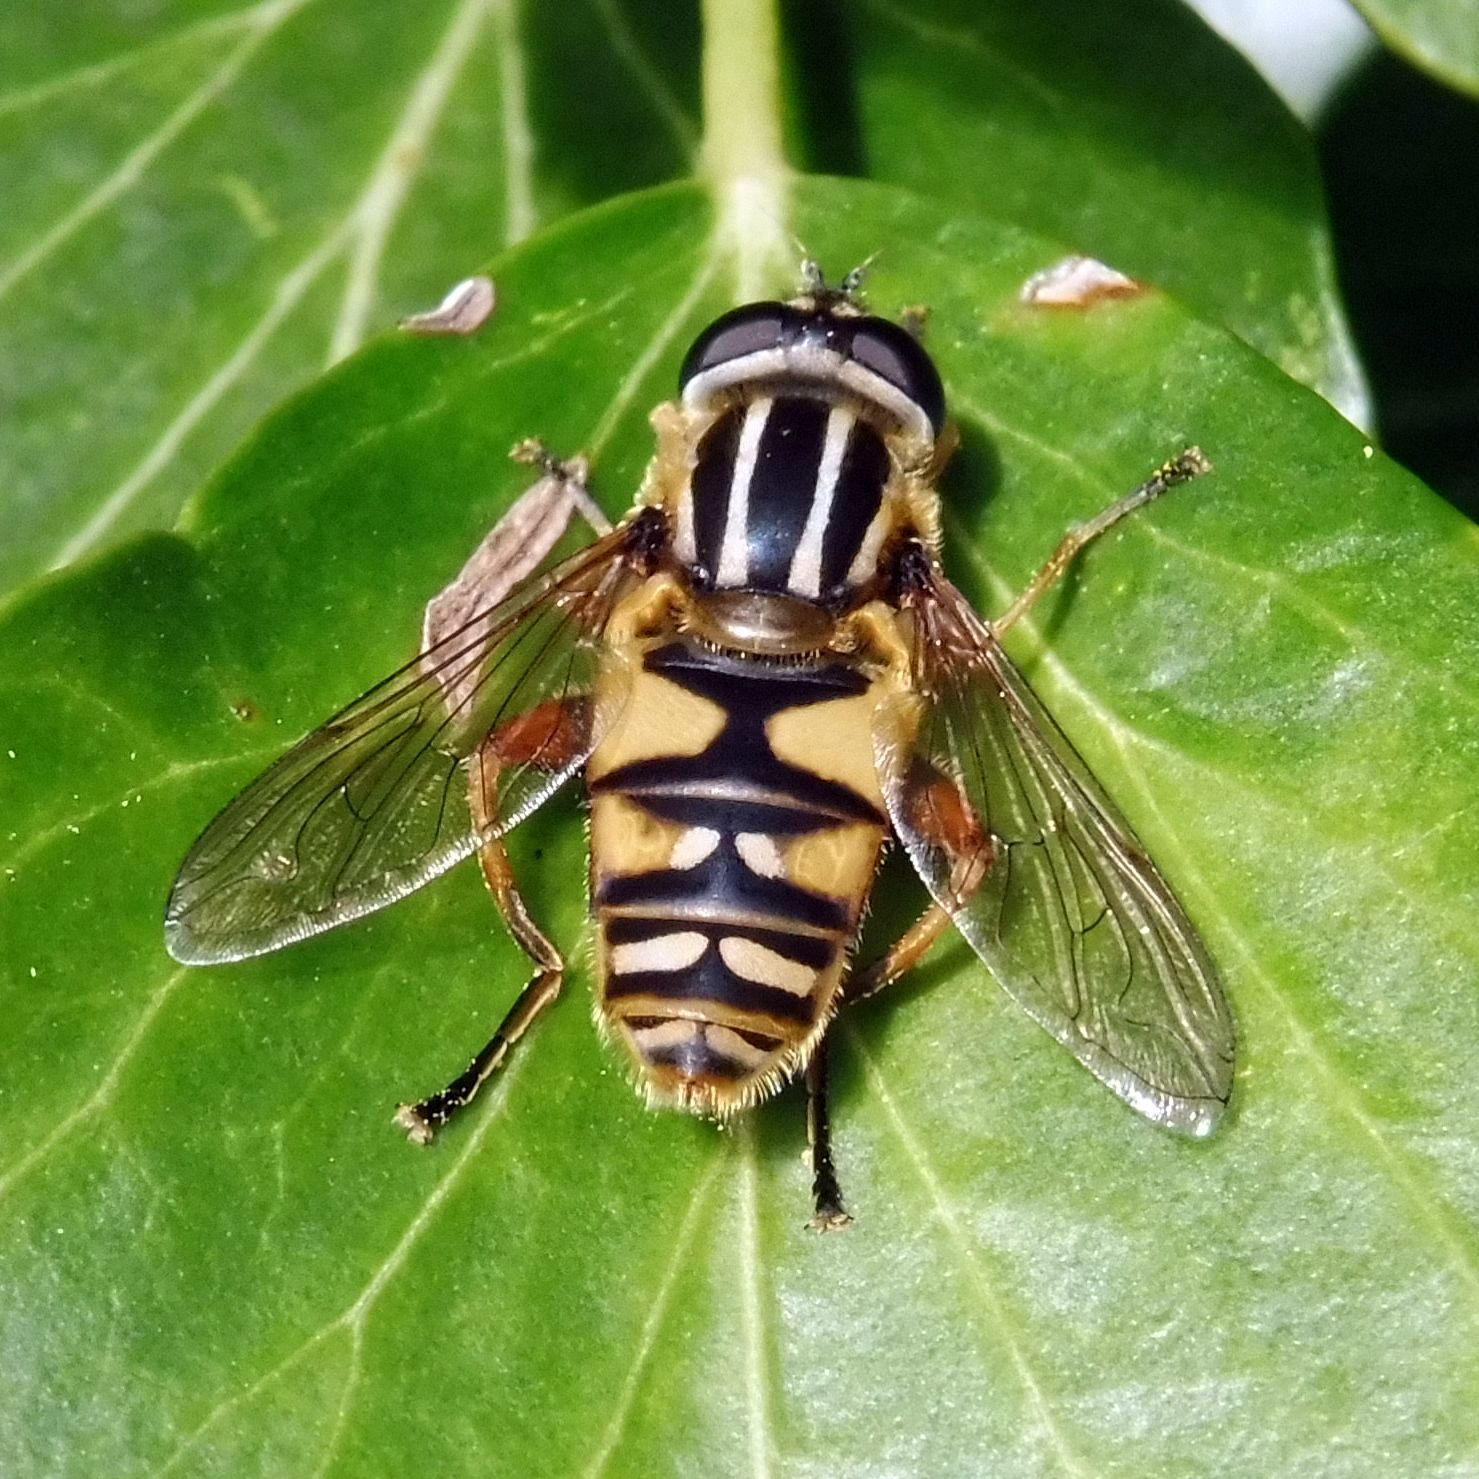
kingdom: Animalia
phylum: Arthropoda
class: Insecta
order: Diptera
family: Syrphidae
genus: Helophilus
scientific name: Helophilus pendulus
